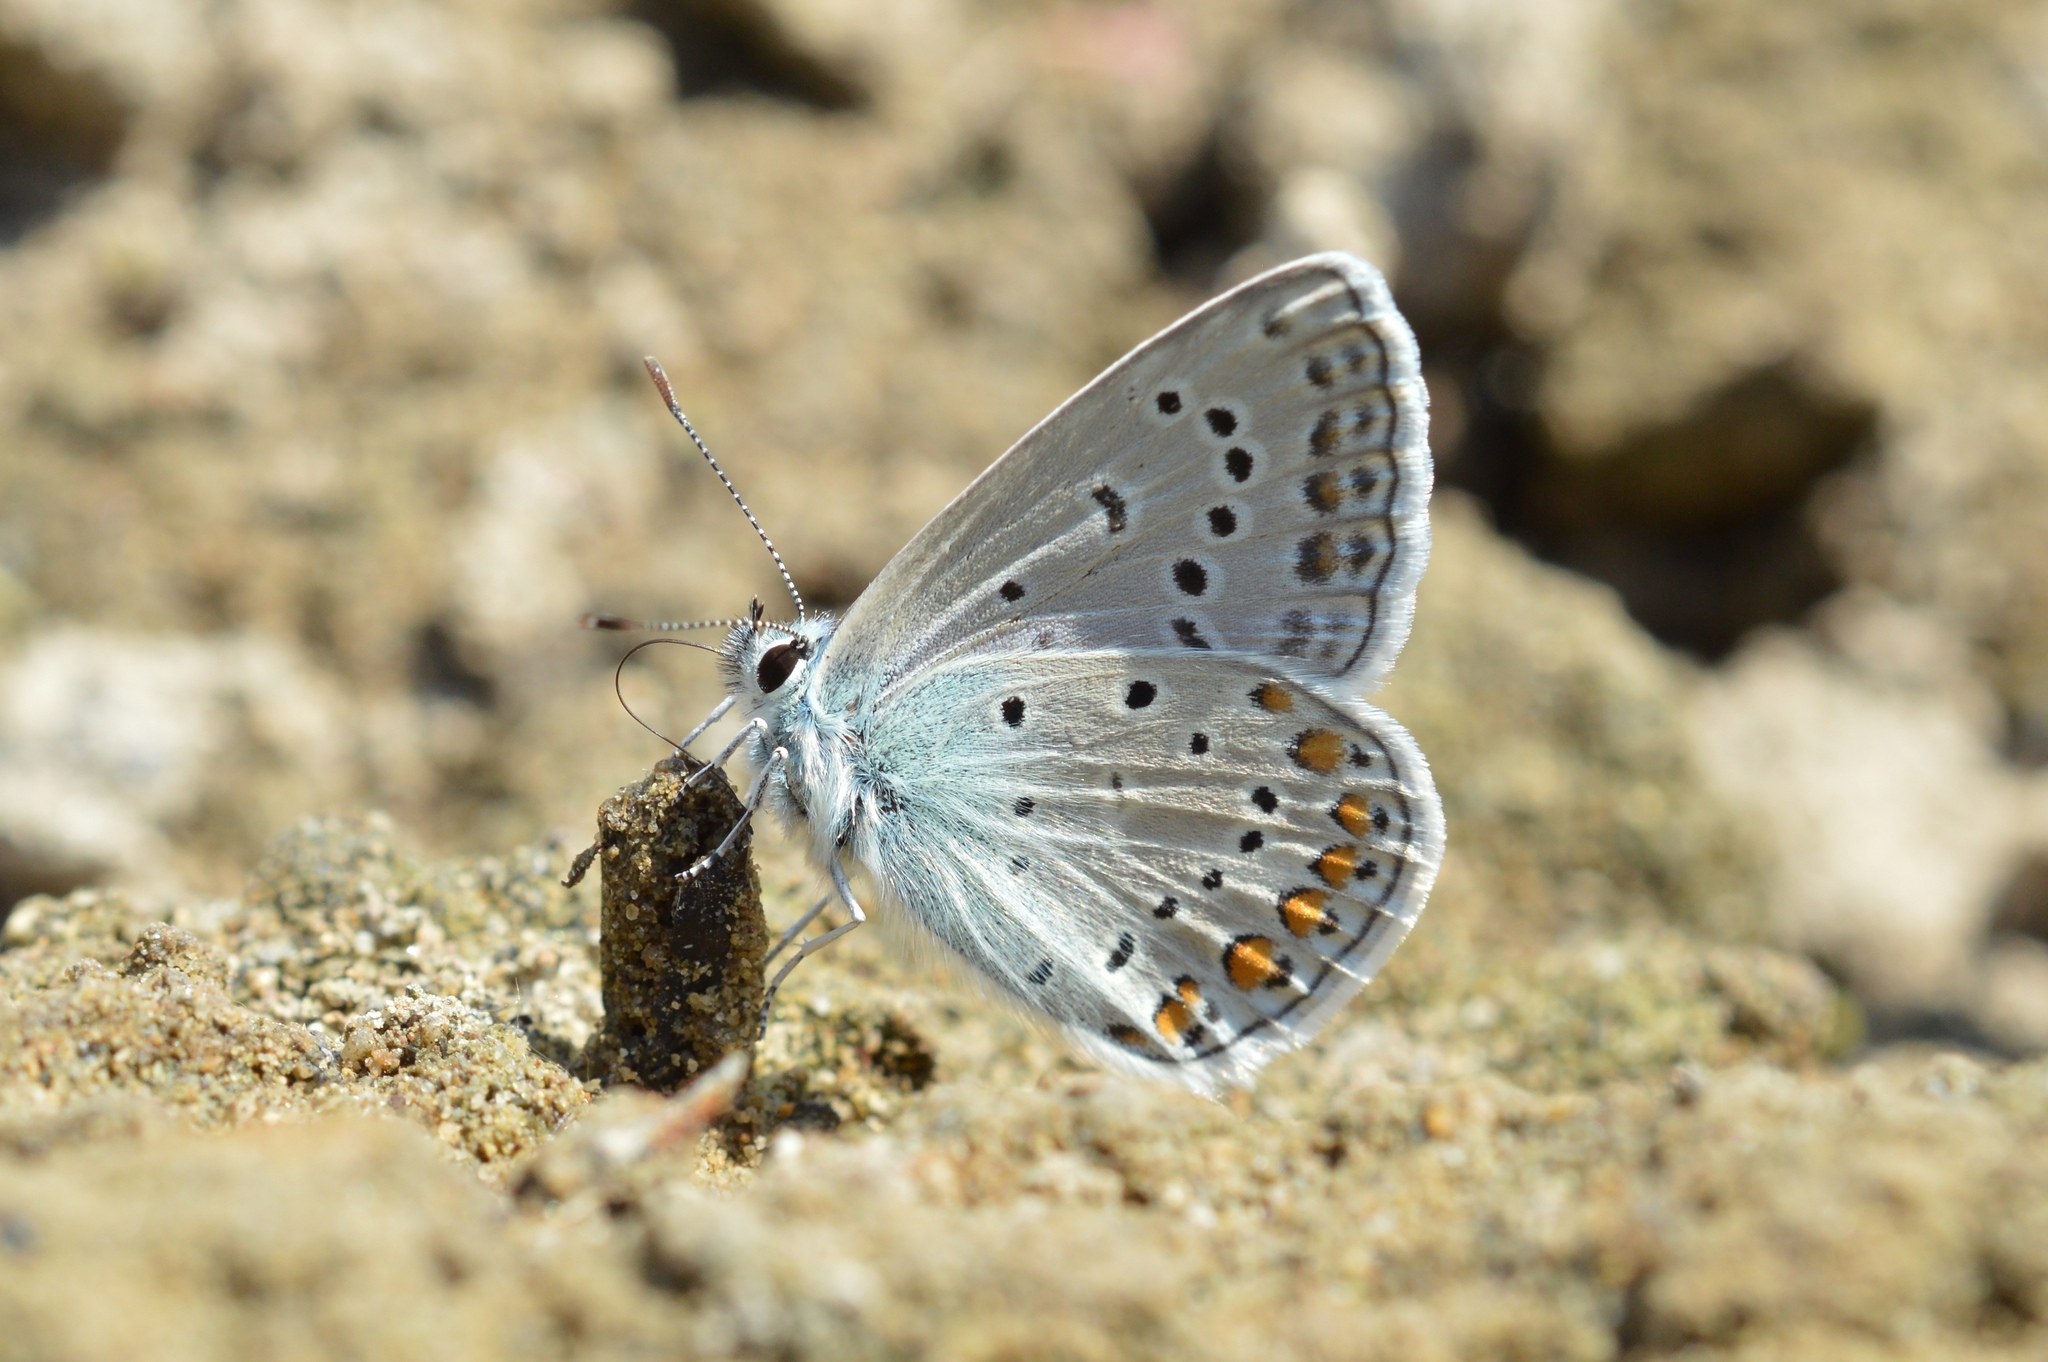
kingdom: Animalia
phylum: Arthropoda
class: Insecta
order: Lepidoptera
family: Lycaenidae
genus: Polyommatus
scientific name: Polyommatus icarus
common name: Common blue
